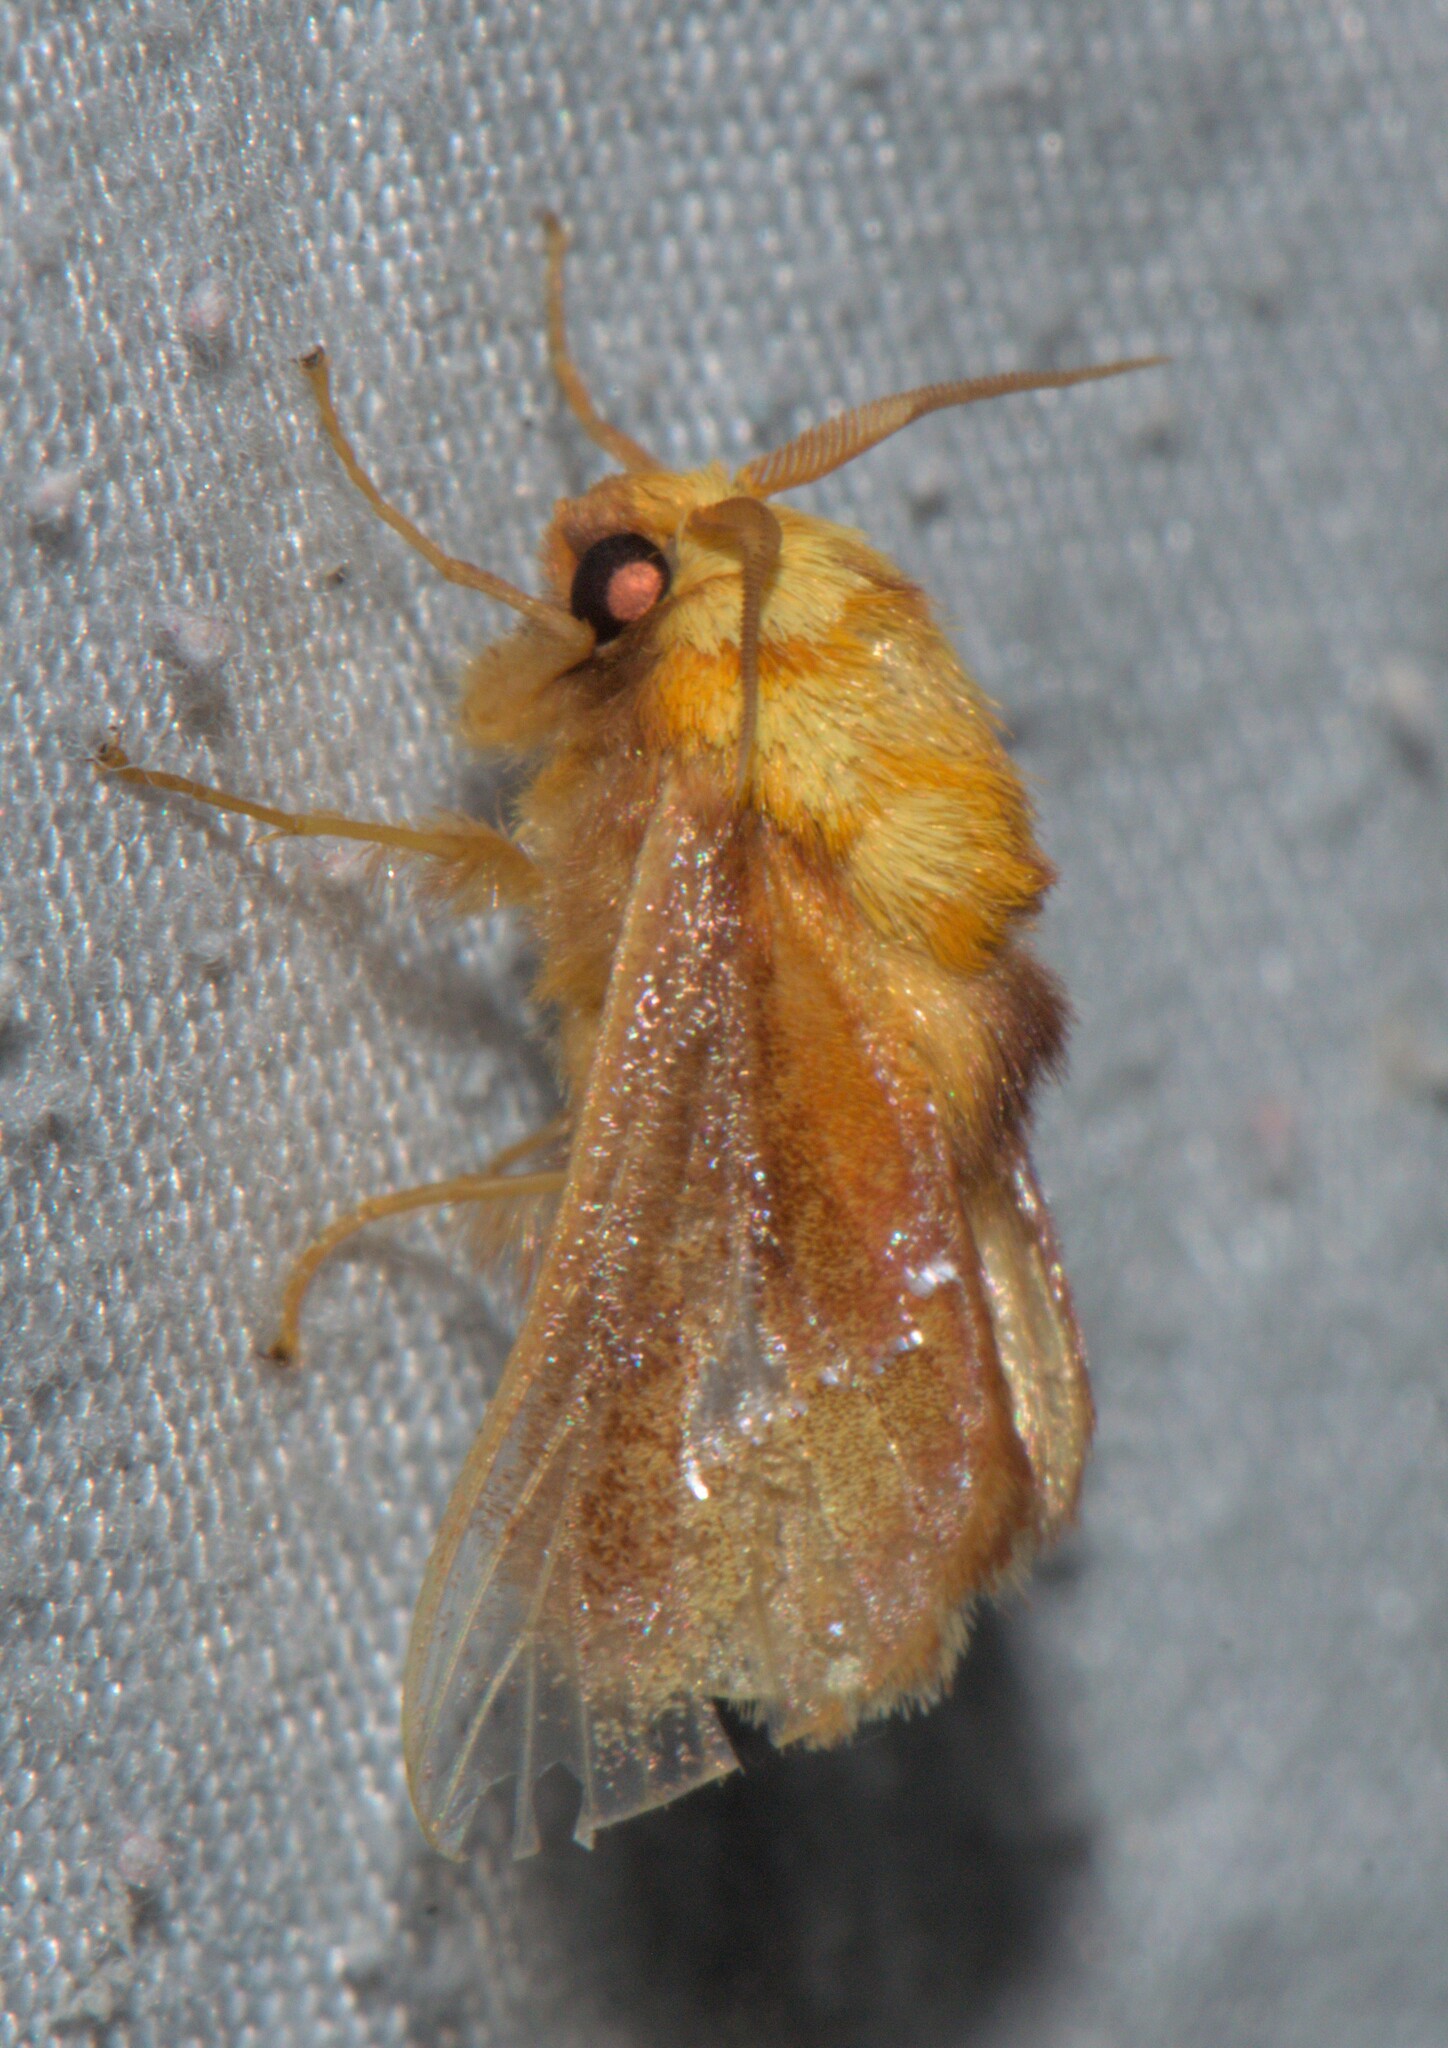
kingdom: Animalia
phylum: Arthropoda
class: Insecta
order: Lepidoptera
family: Limacodidae
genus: Miresa
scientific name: Miresa bracteata
